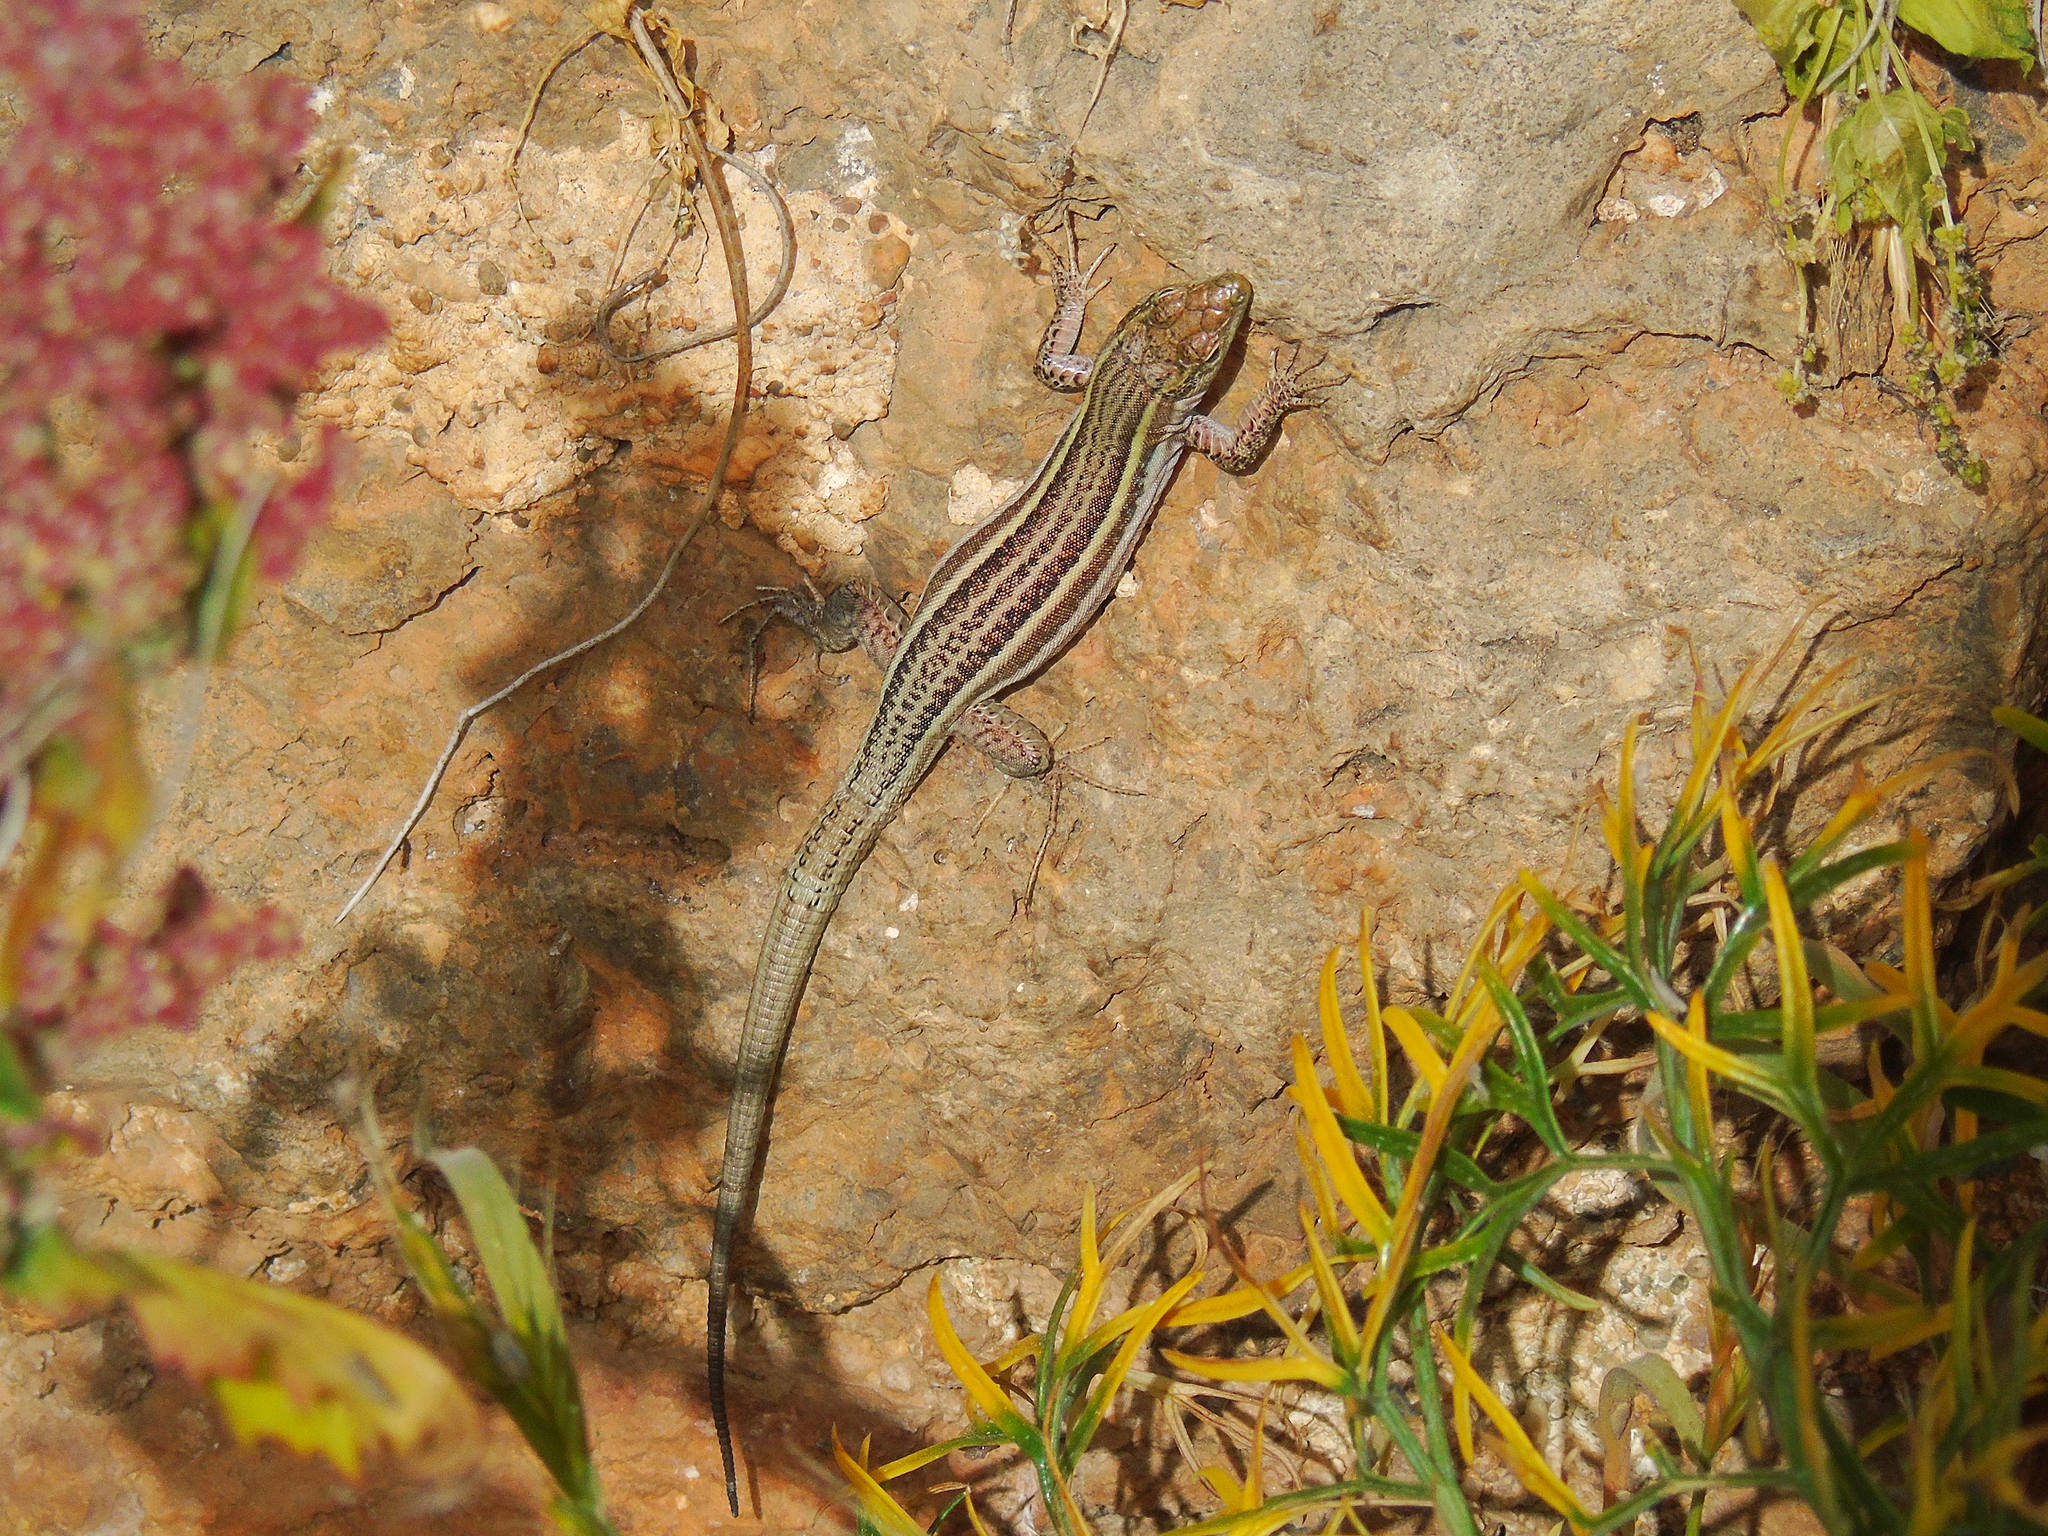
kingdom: Animalia
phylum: Chordata
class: Squamata
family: Lacertidae
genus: Podarcis
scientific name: Podarcis peloponnesiacus
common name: Peloponnese wall lizard
